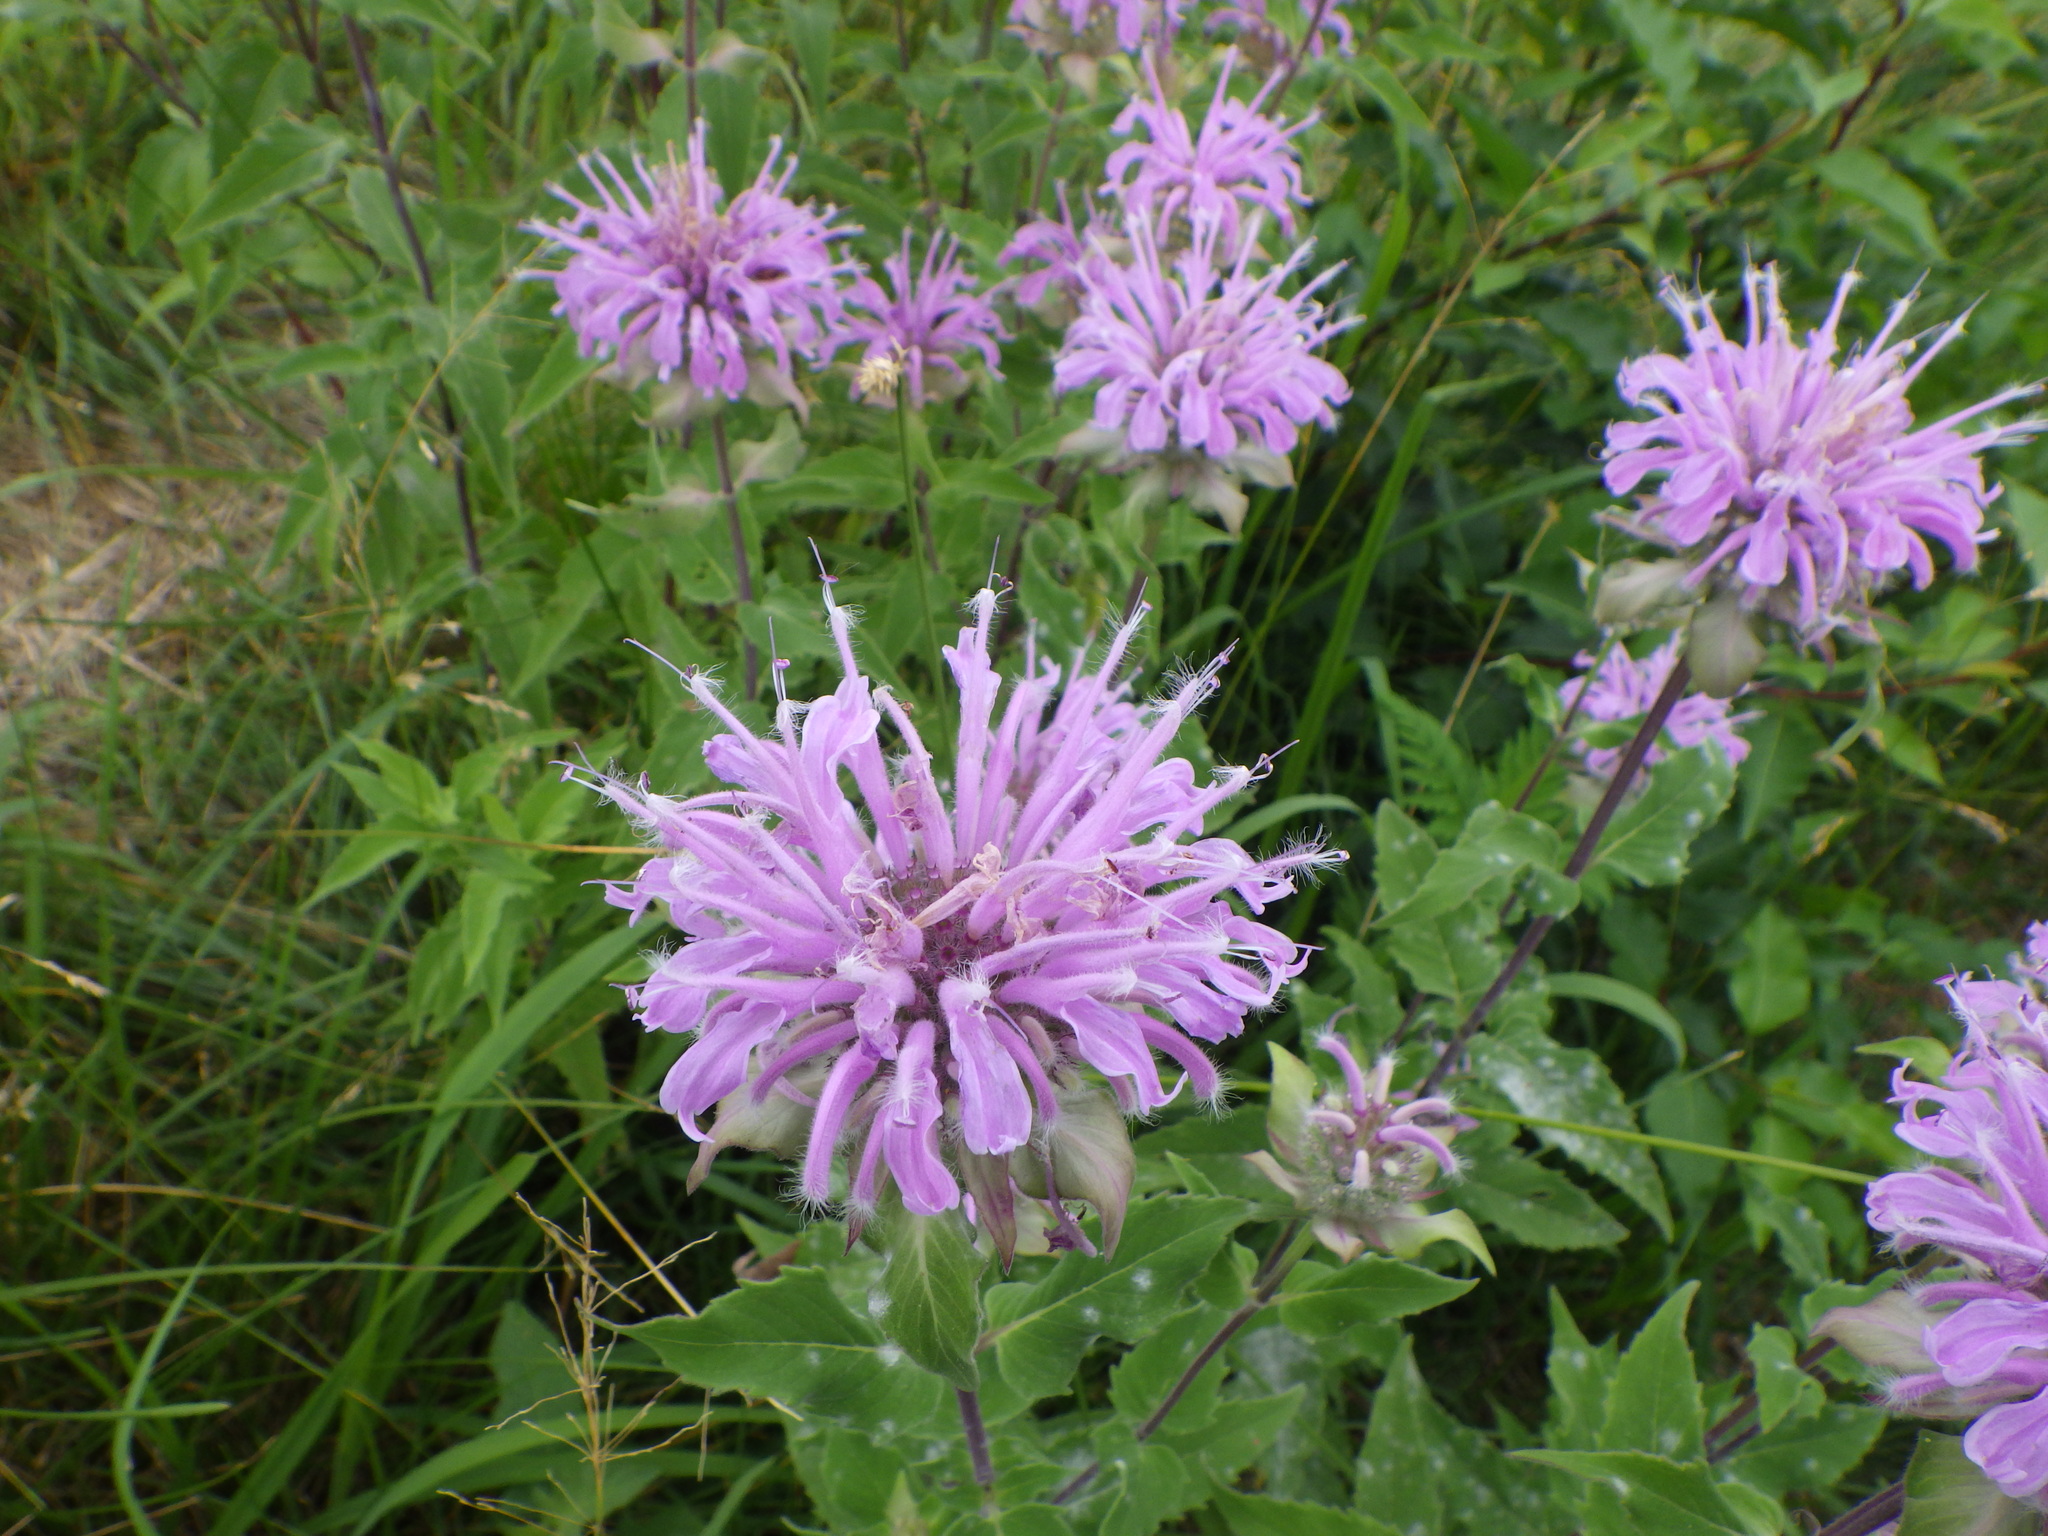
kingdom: Plantae
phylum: Tracheophyta
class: Magnoliopsida
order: Lamiales
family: Lamiaceae
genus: Monarda
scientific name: Monarda fistulosa
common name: Purple beebalm
